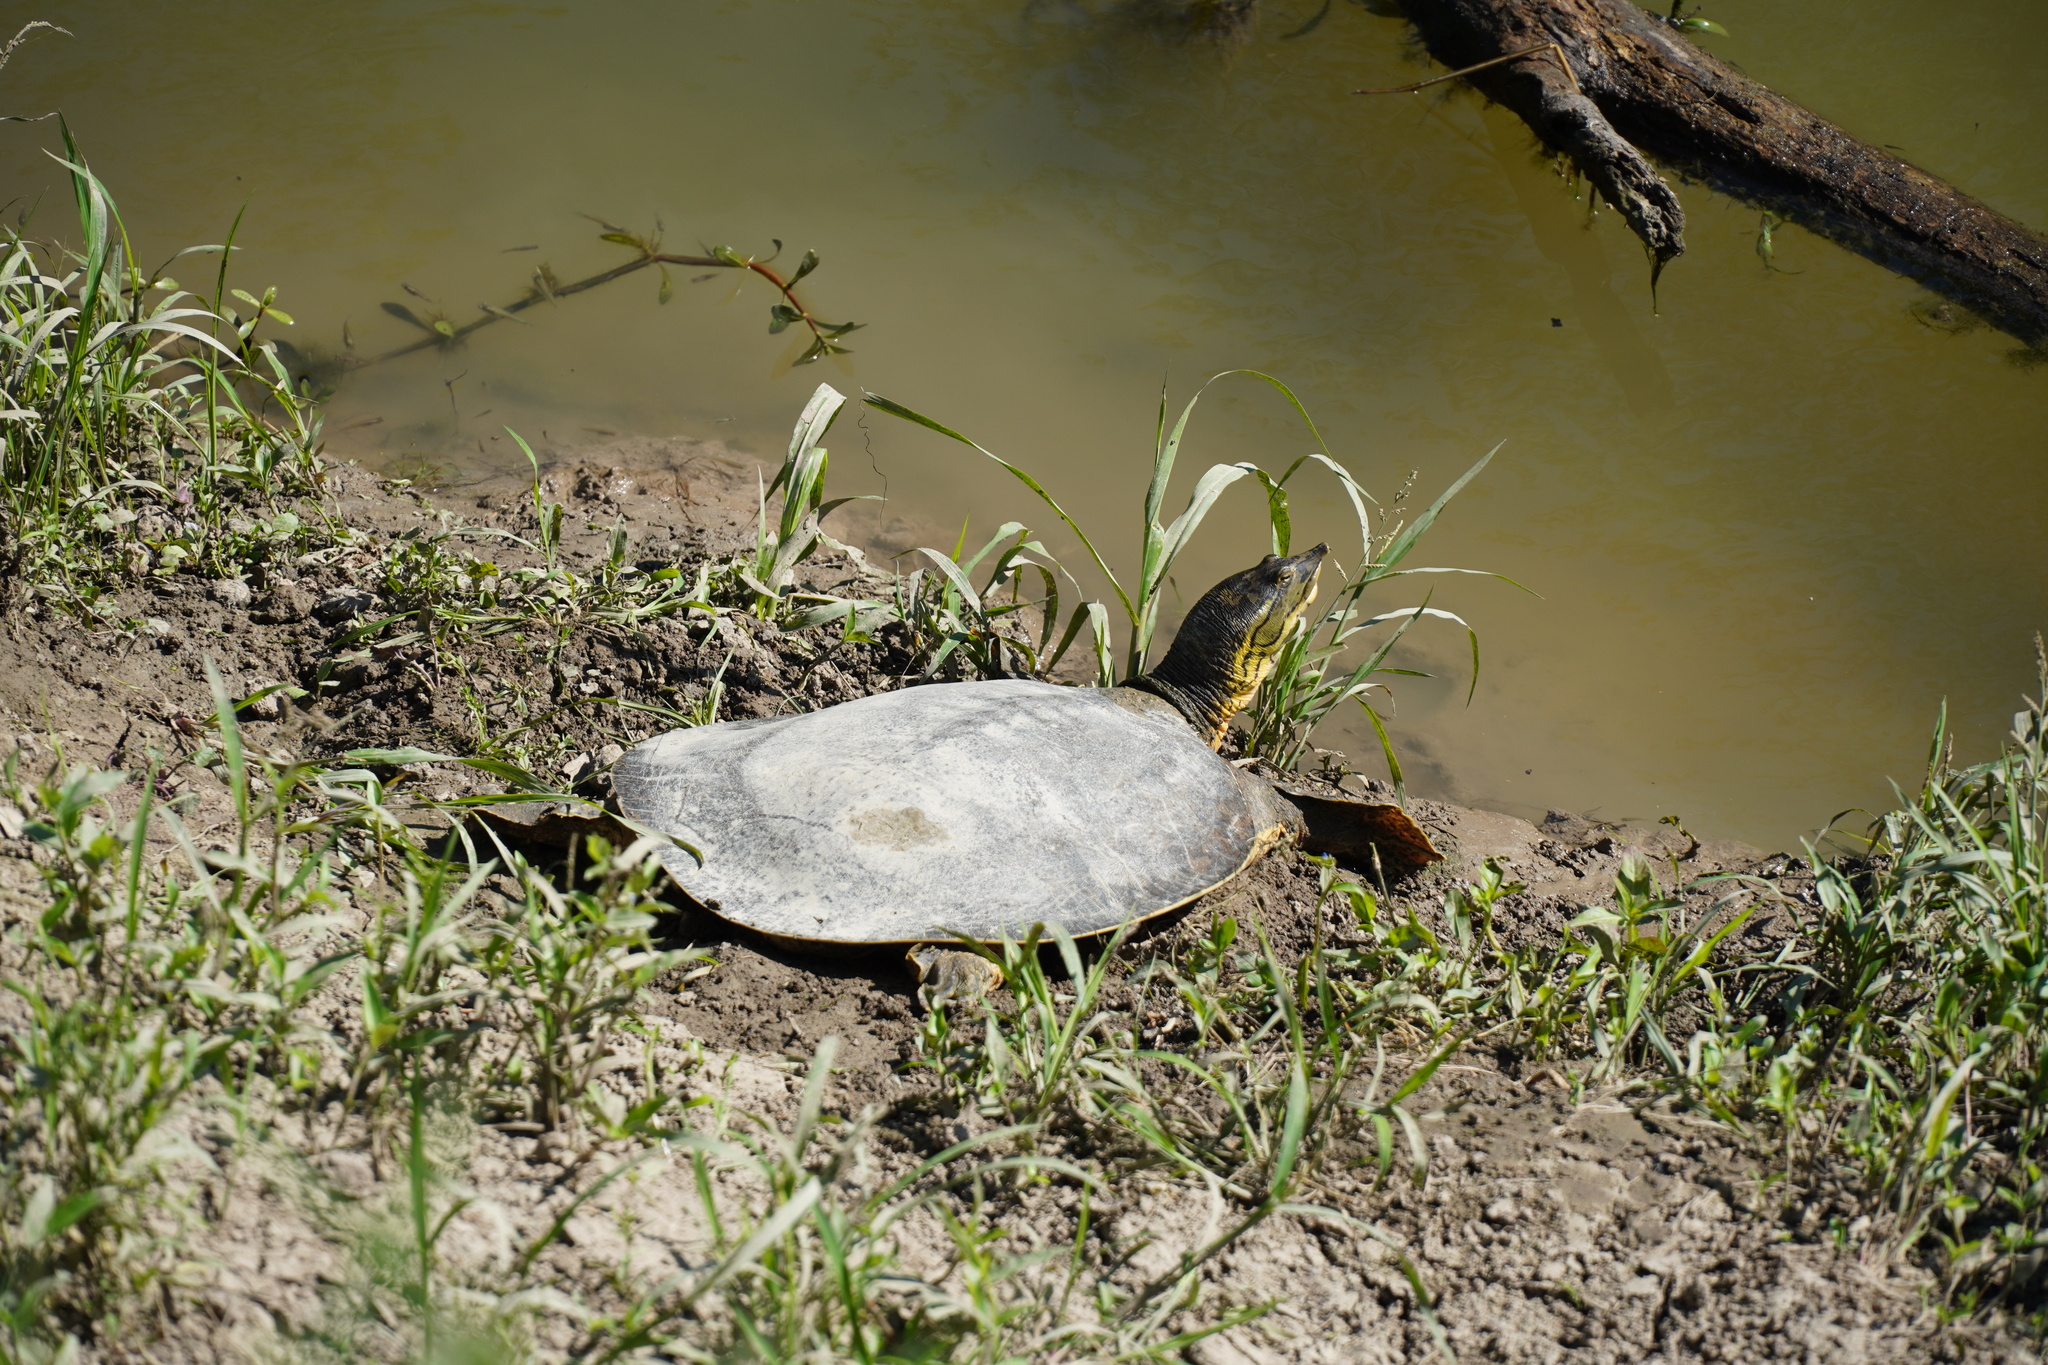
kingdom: Animalia
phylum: Chordata
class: Testudines
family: Trionychidae
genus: Apalone
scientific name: Apalone spinifera
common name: Spiny softshell turtle
